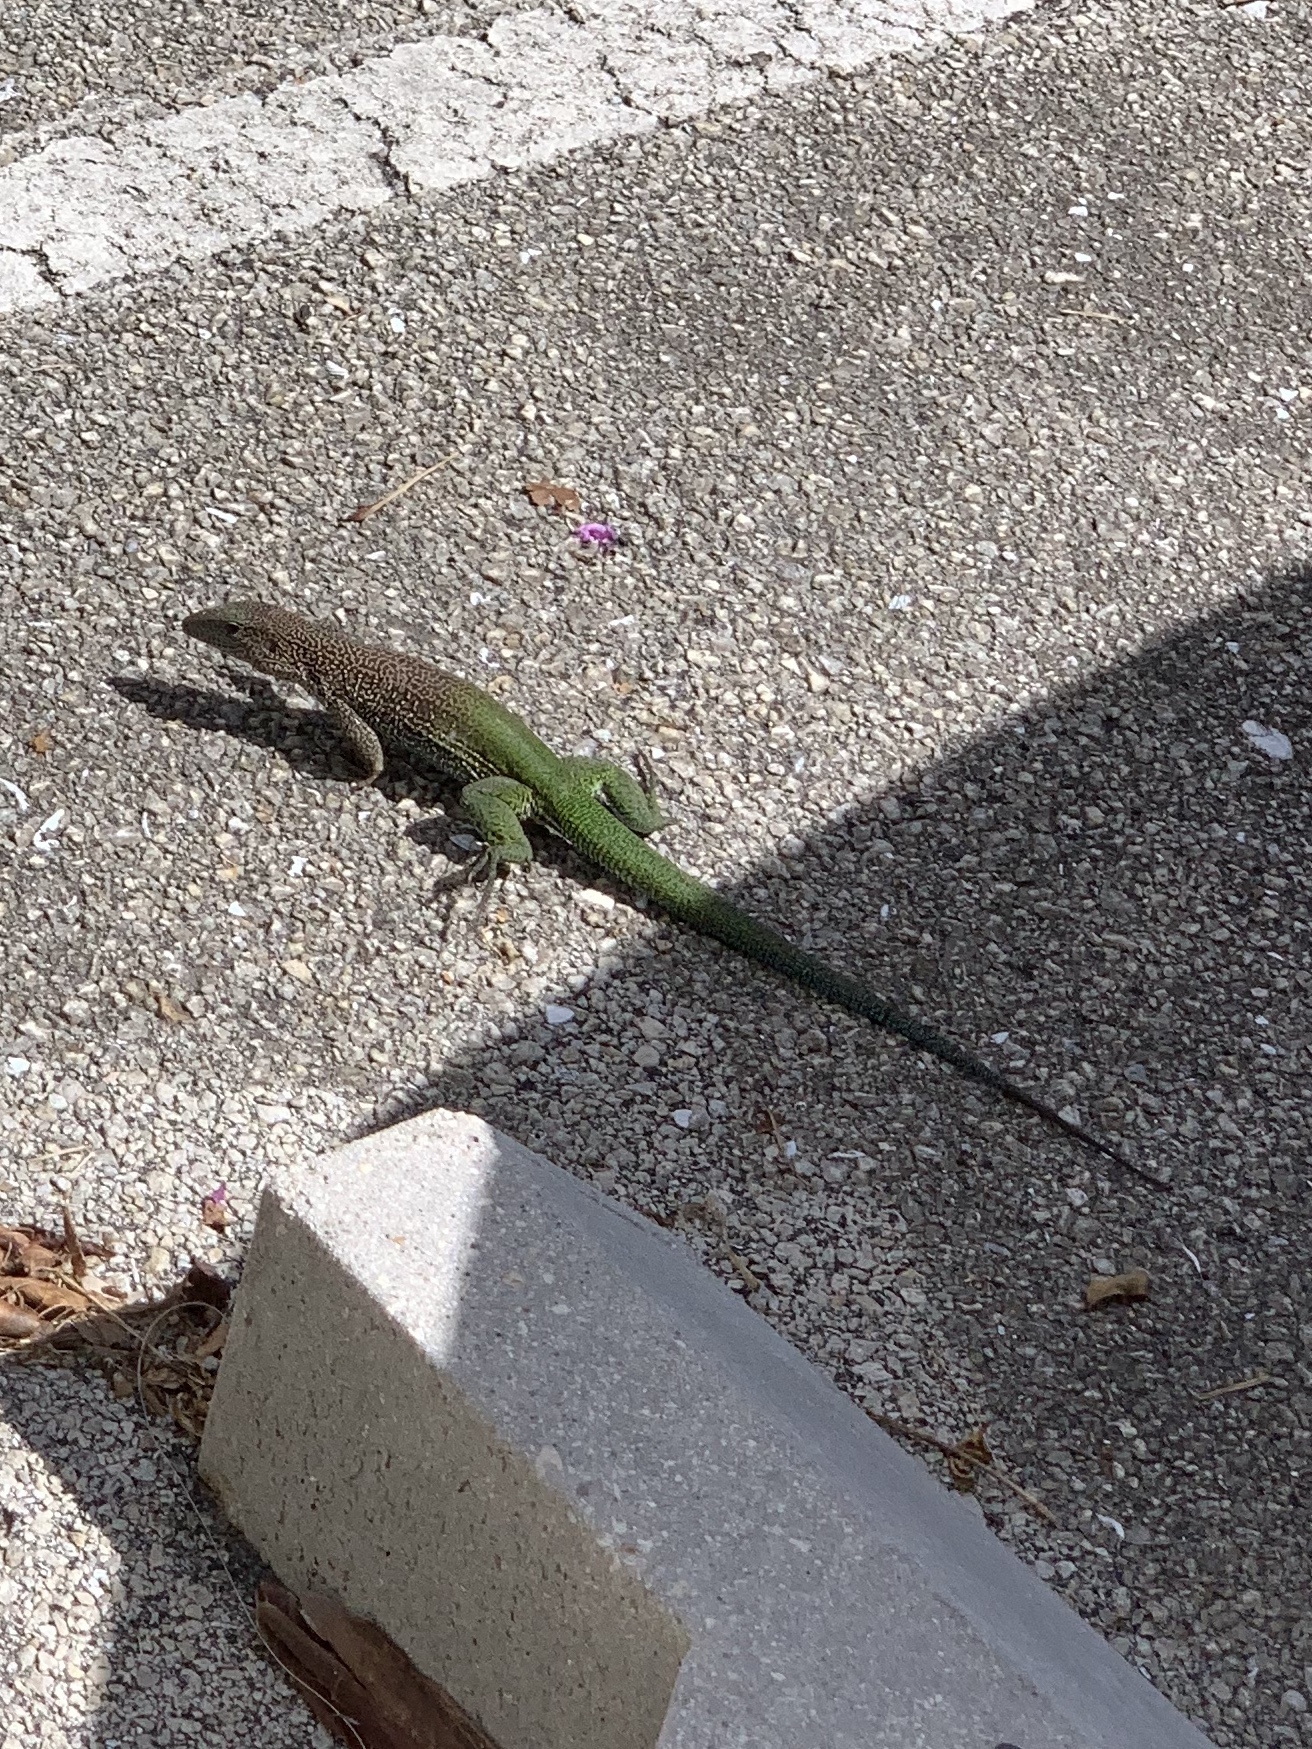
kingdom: Animalia
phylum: Chordata
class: Squamata
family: Teiidae
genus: Ameiva
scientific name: Ameiva ameiva
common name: Giant ameiva
